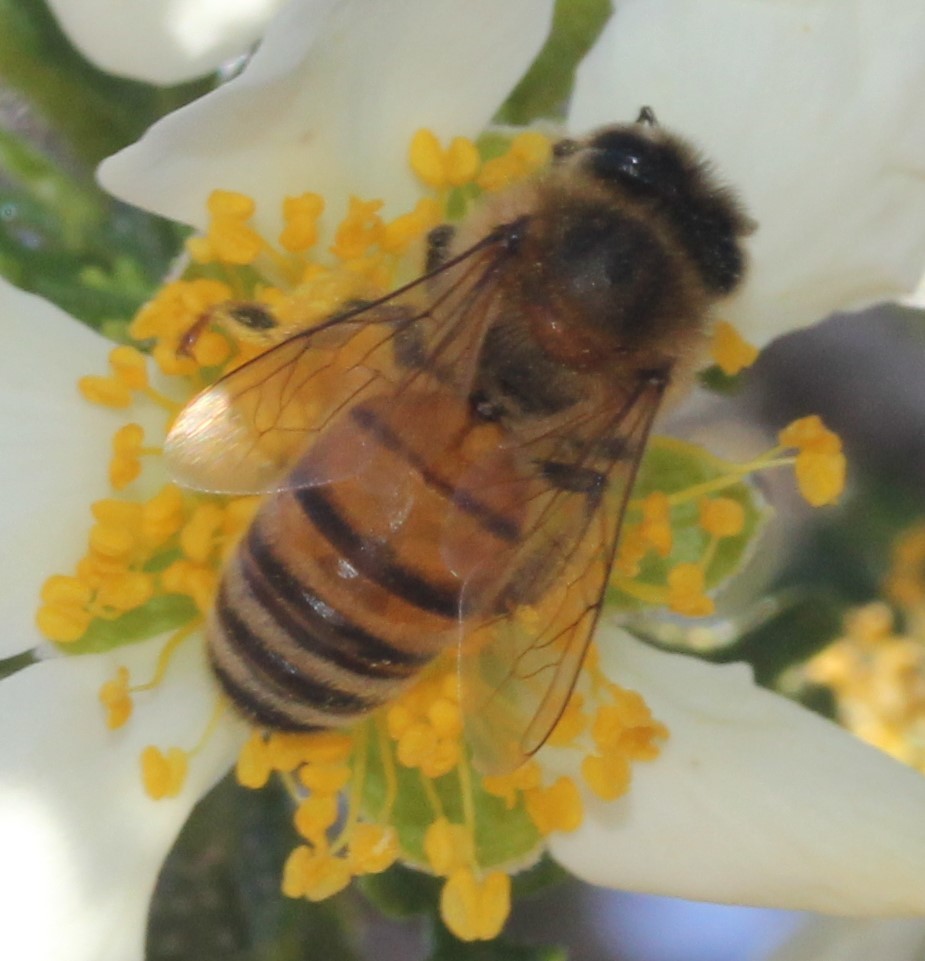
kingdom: Animalia
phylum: Arthropoda
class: Insecta
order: Hymenoptera
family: Apidae
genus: Apis
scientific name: Apis mellifera
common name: Honey bee
